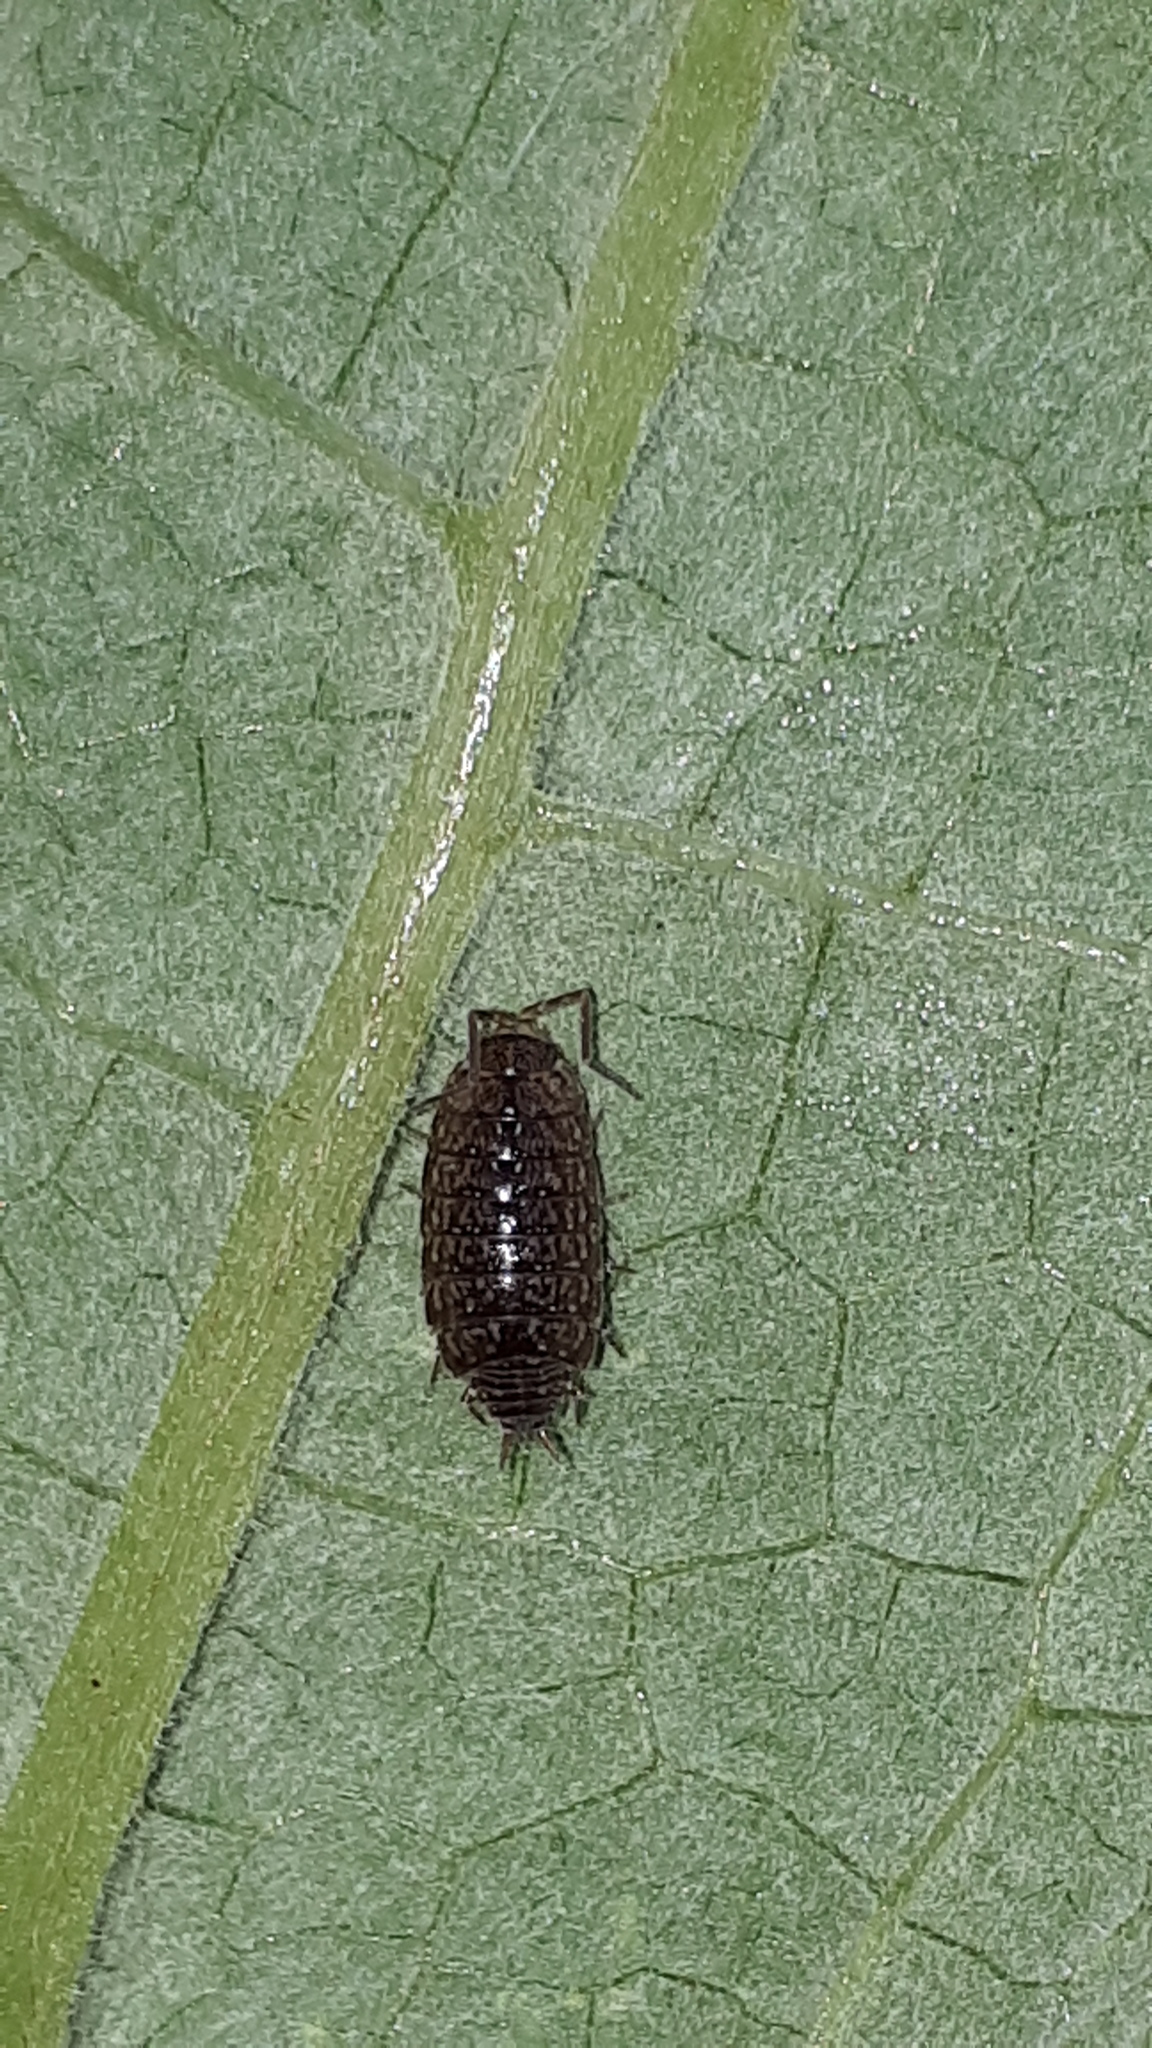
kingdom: Animalia
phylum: Arthropoda
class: Malacostraca
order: Isopoda
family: Philosciidae
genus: Philoscia
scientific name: Philoscia affinis
